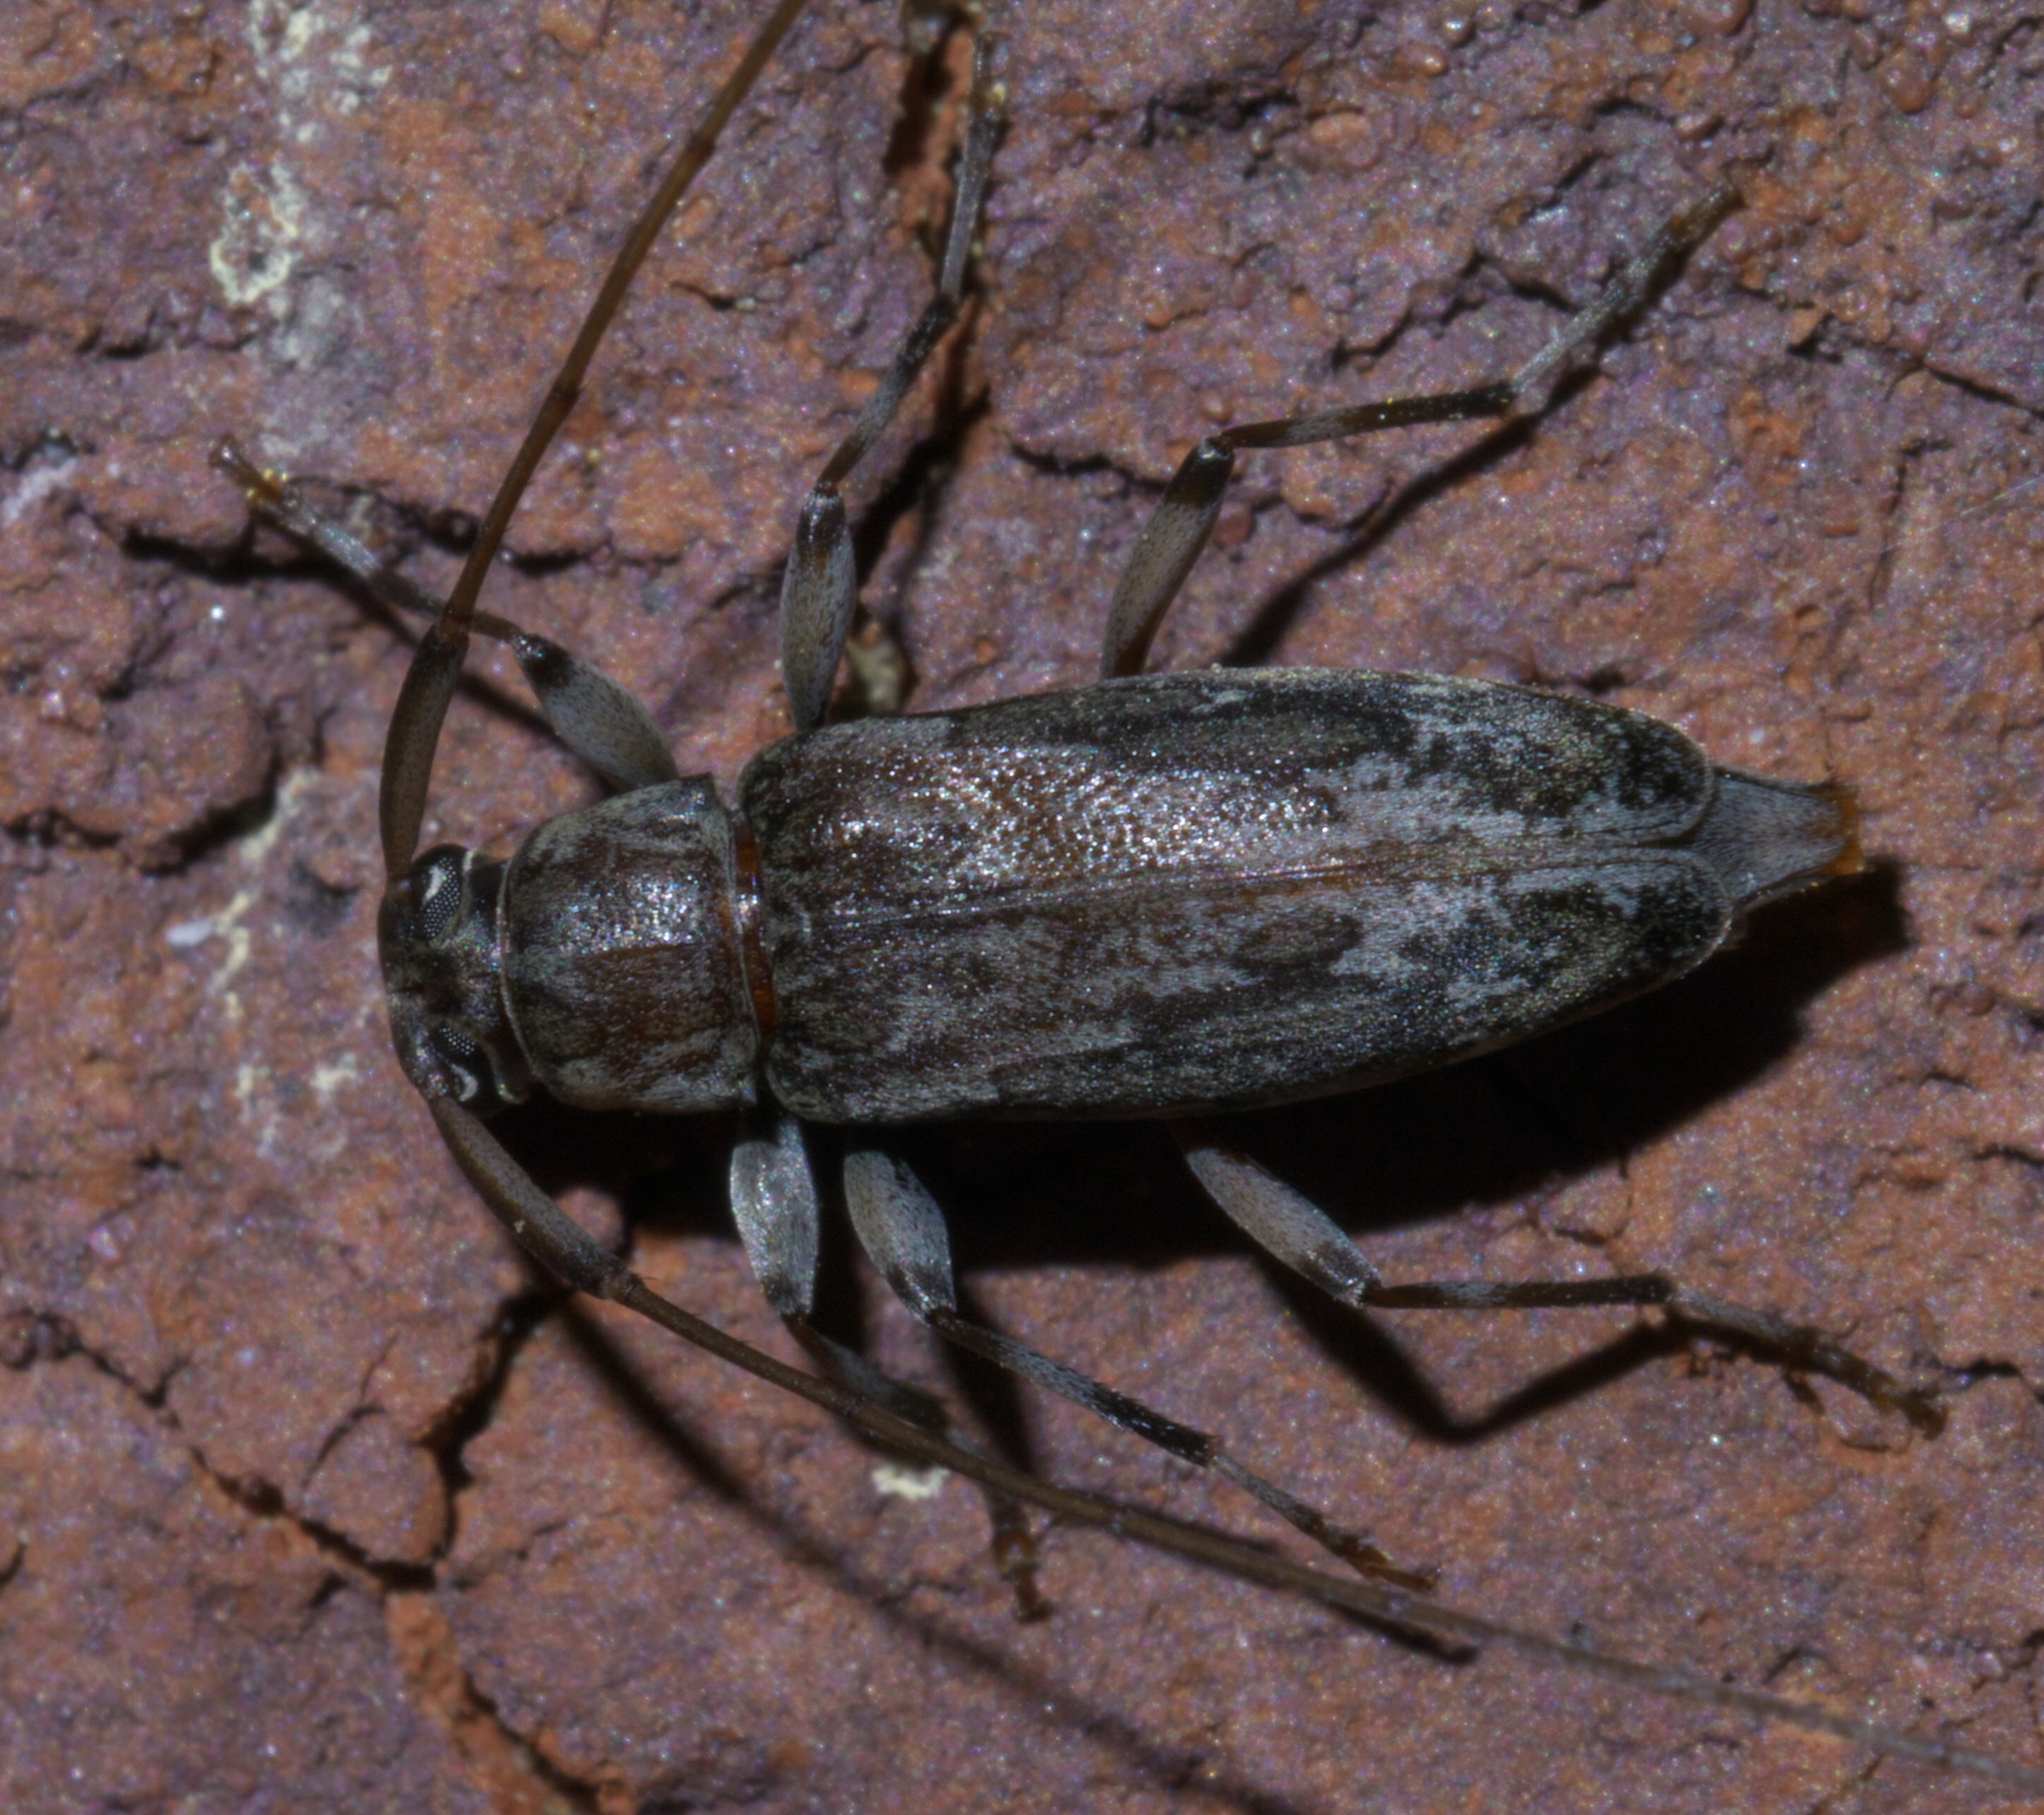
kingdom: Animalia
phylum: Arthropoda
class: Insecta
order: Coleoptera
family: Cerambycidae
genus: Lepturges
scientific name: Lepturges confluens
